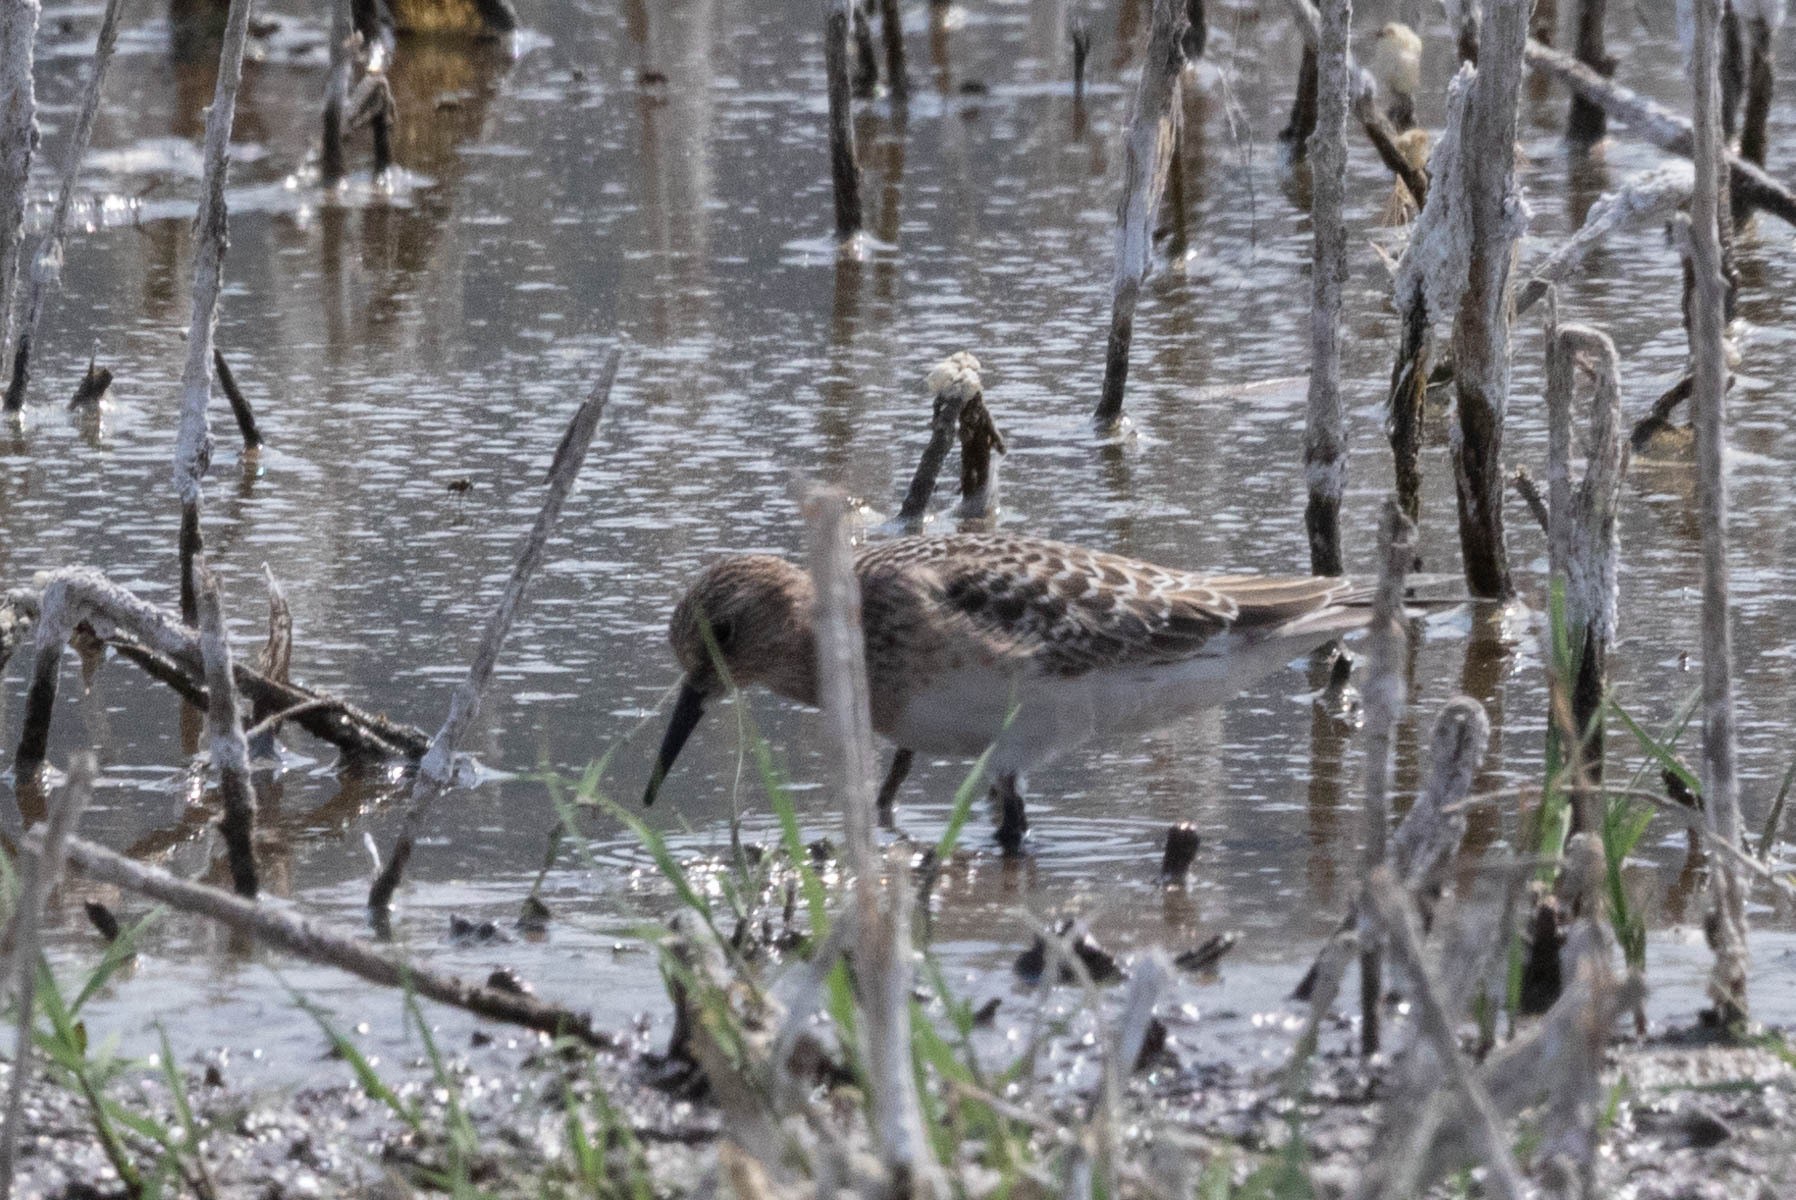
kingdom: Animalia
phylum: Chordata
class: Aves
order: Charadriiformes
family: Scolopacidae
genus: Calidris
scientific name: Calidris bairdii
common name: Baird's sandpiper
